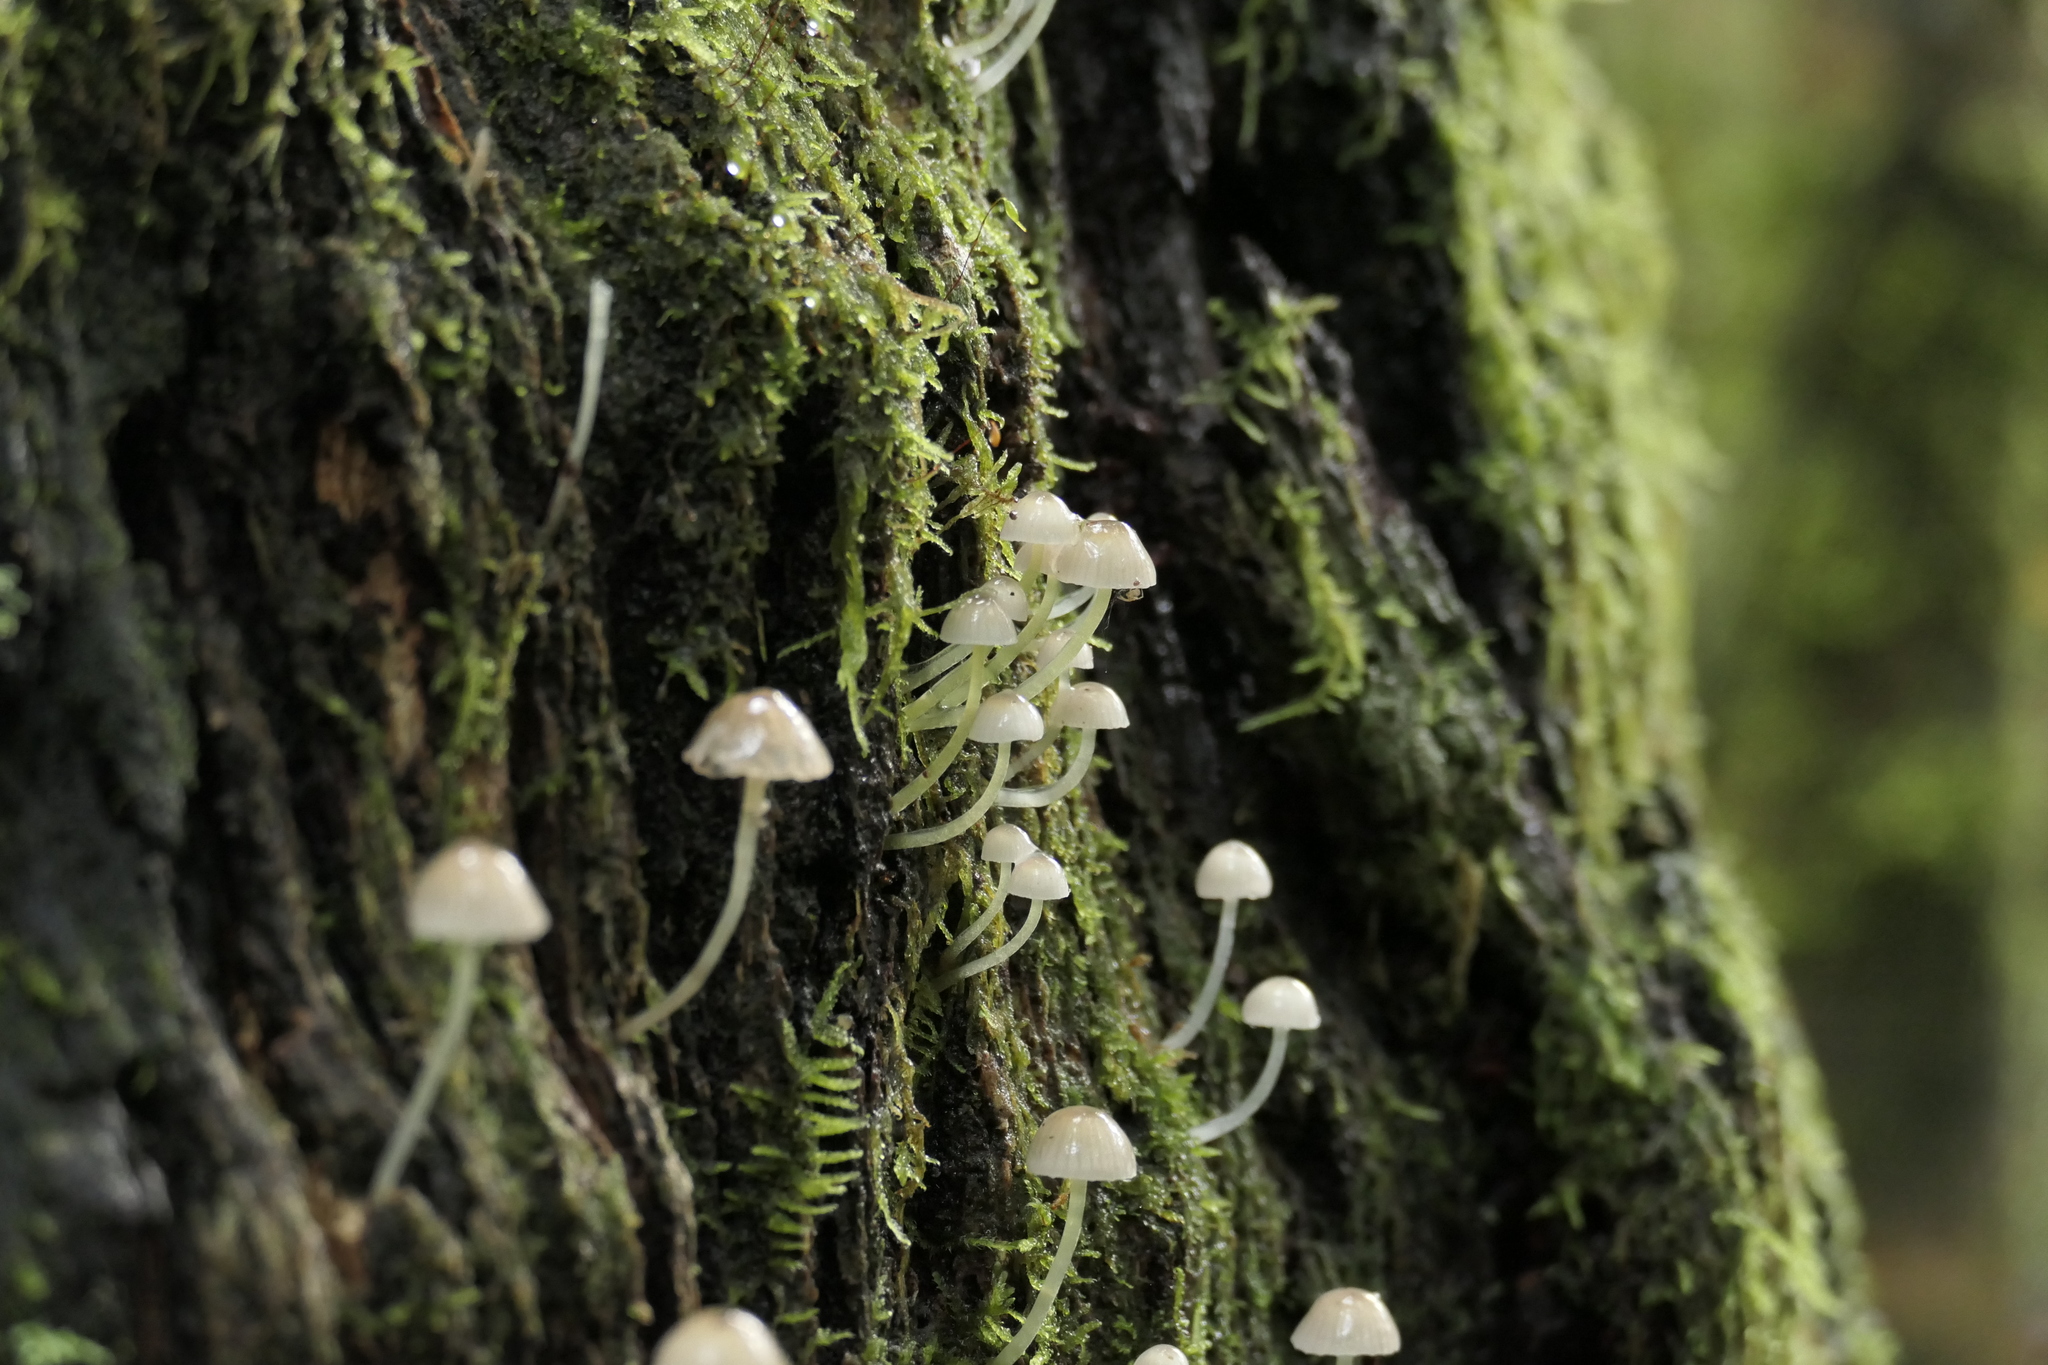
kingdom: Fungi
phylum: Basidiomycota
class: Agaricomycetes
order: Agaricales
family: Mycenaceae
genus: Mycena
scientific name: Mycena subviscosa
